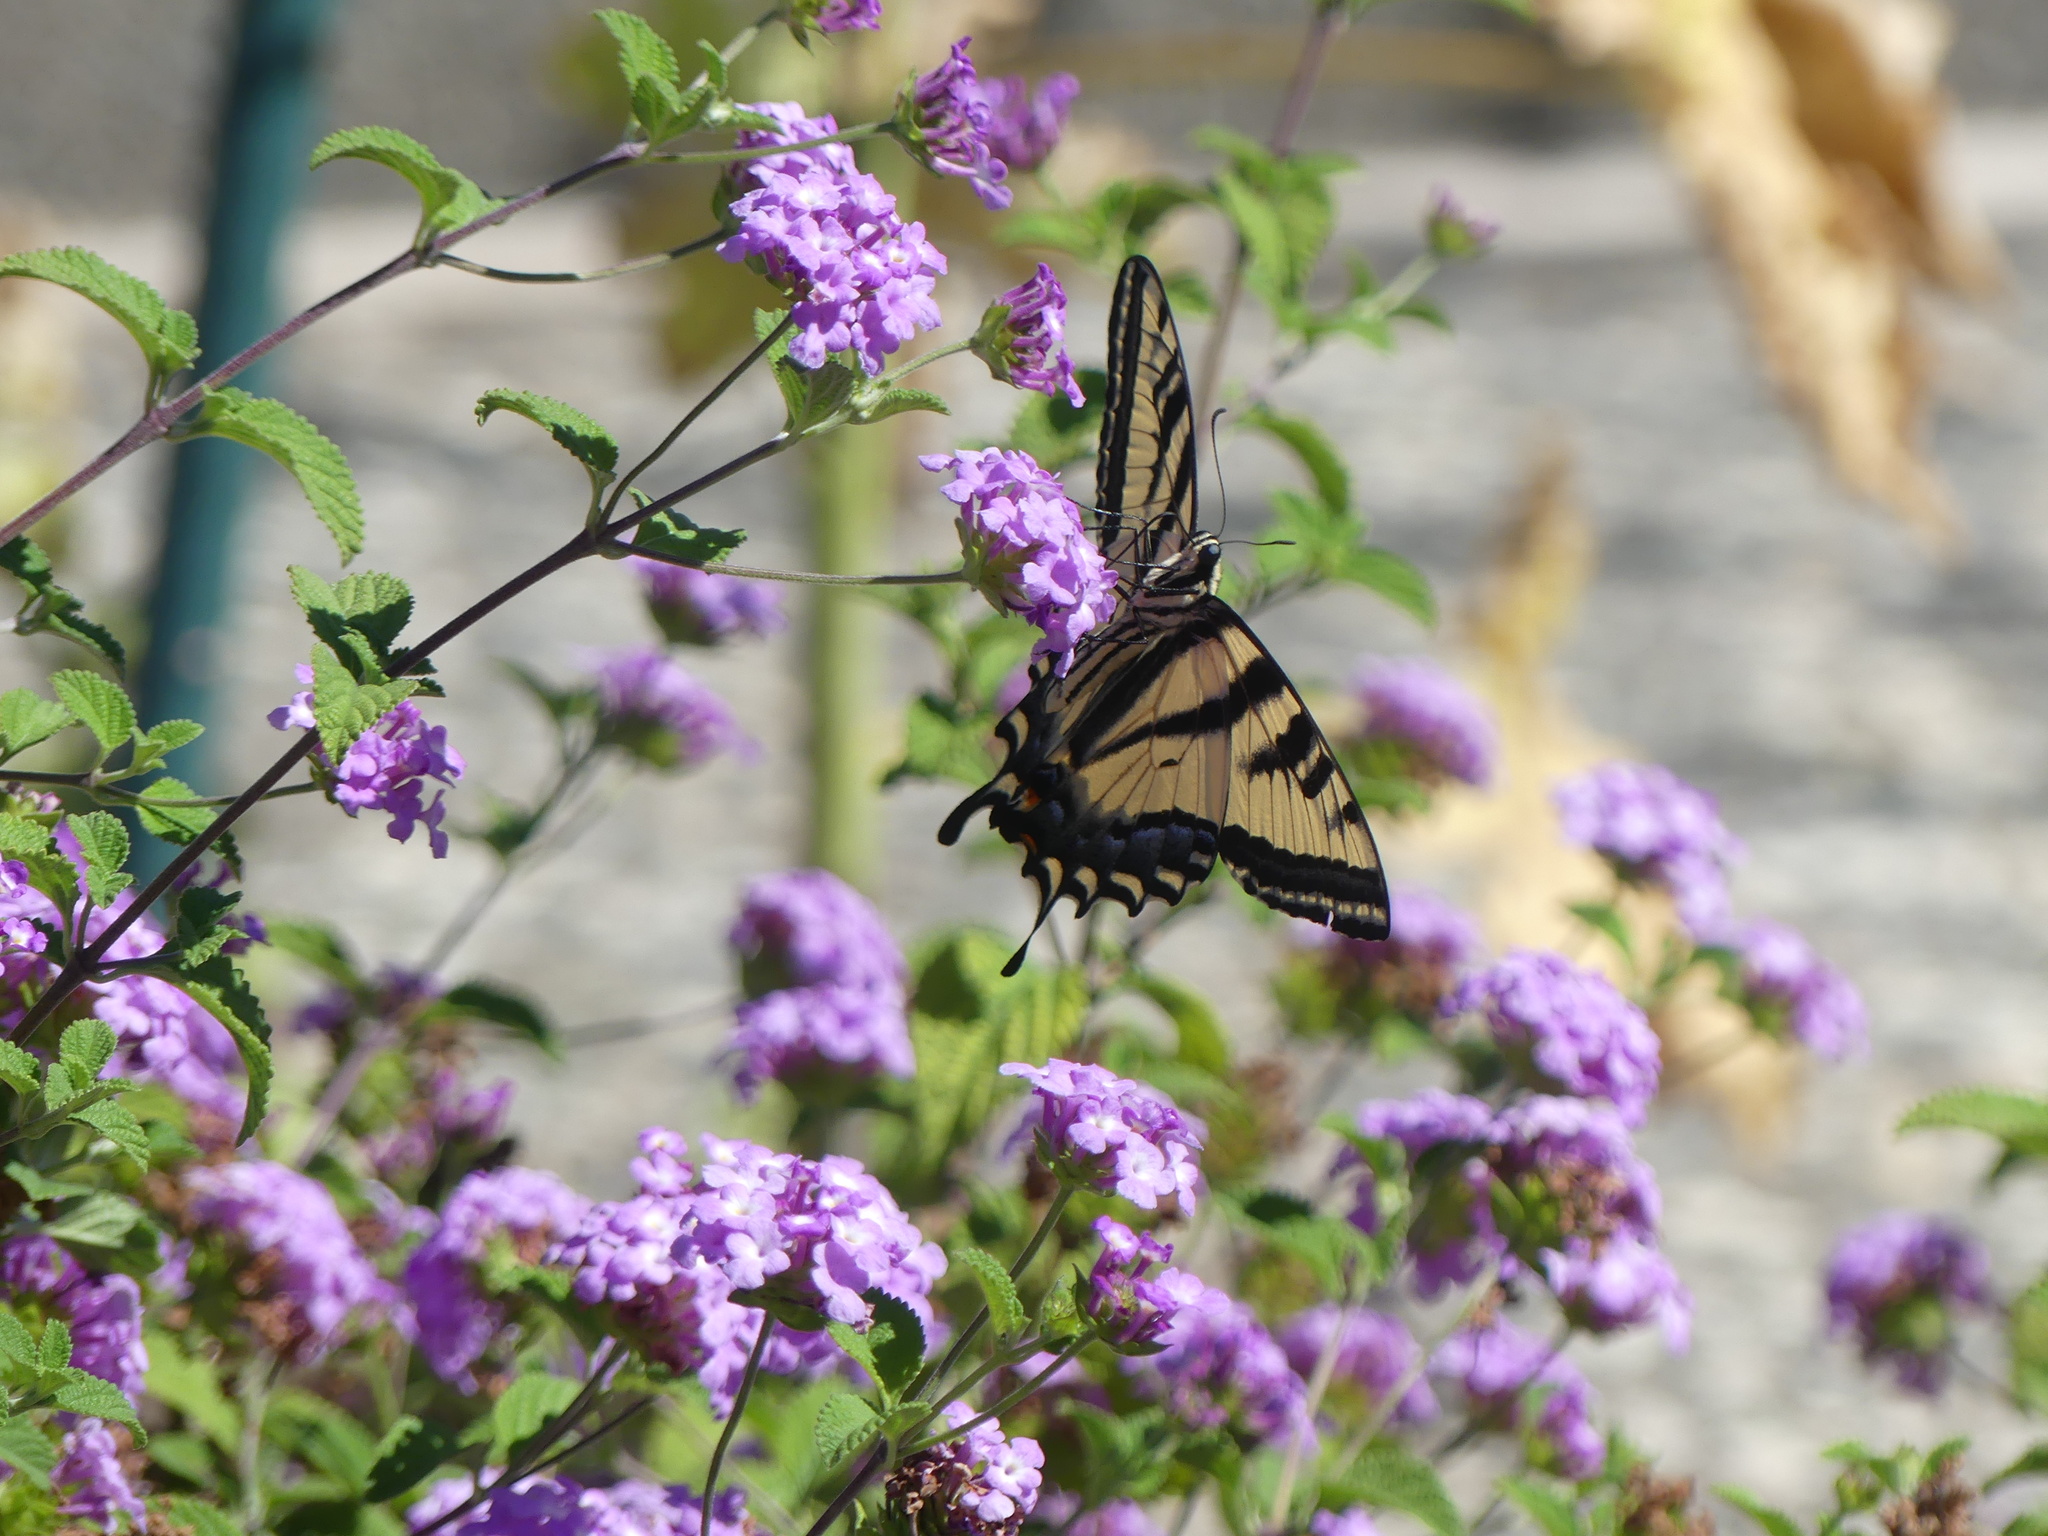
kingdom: Animalia
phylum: Arthropoda
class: Insecta
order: Lepidoptera
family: Papilionidae
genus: Papilio
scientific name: Papilio rutulus
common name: Western tiger swallowtail
